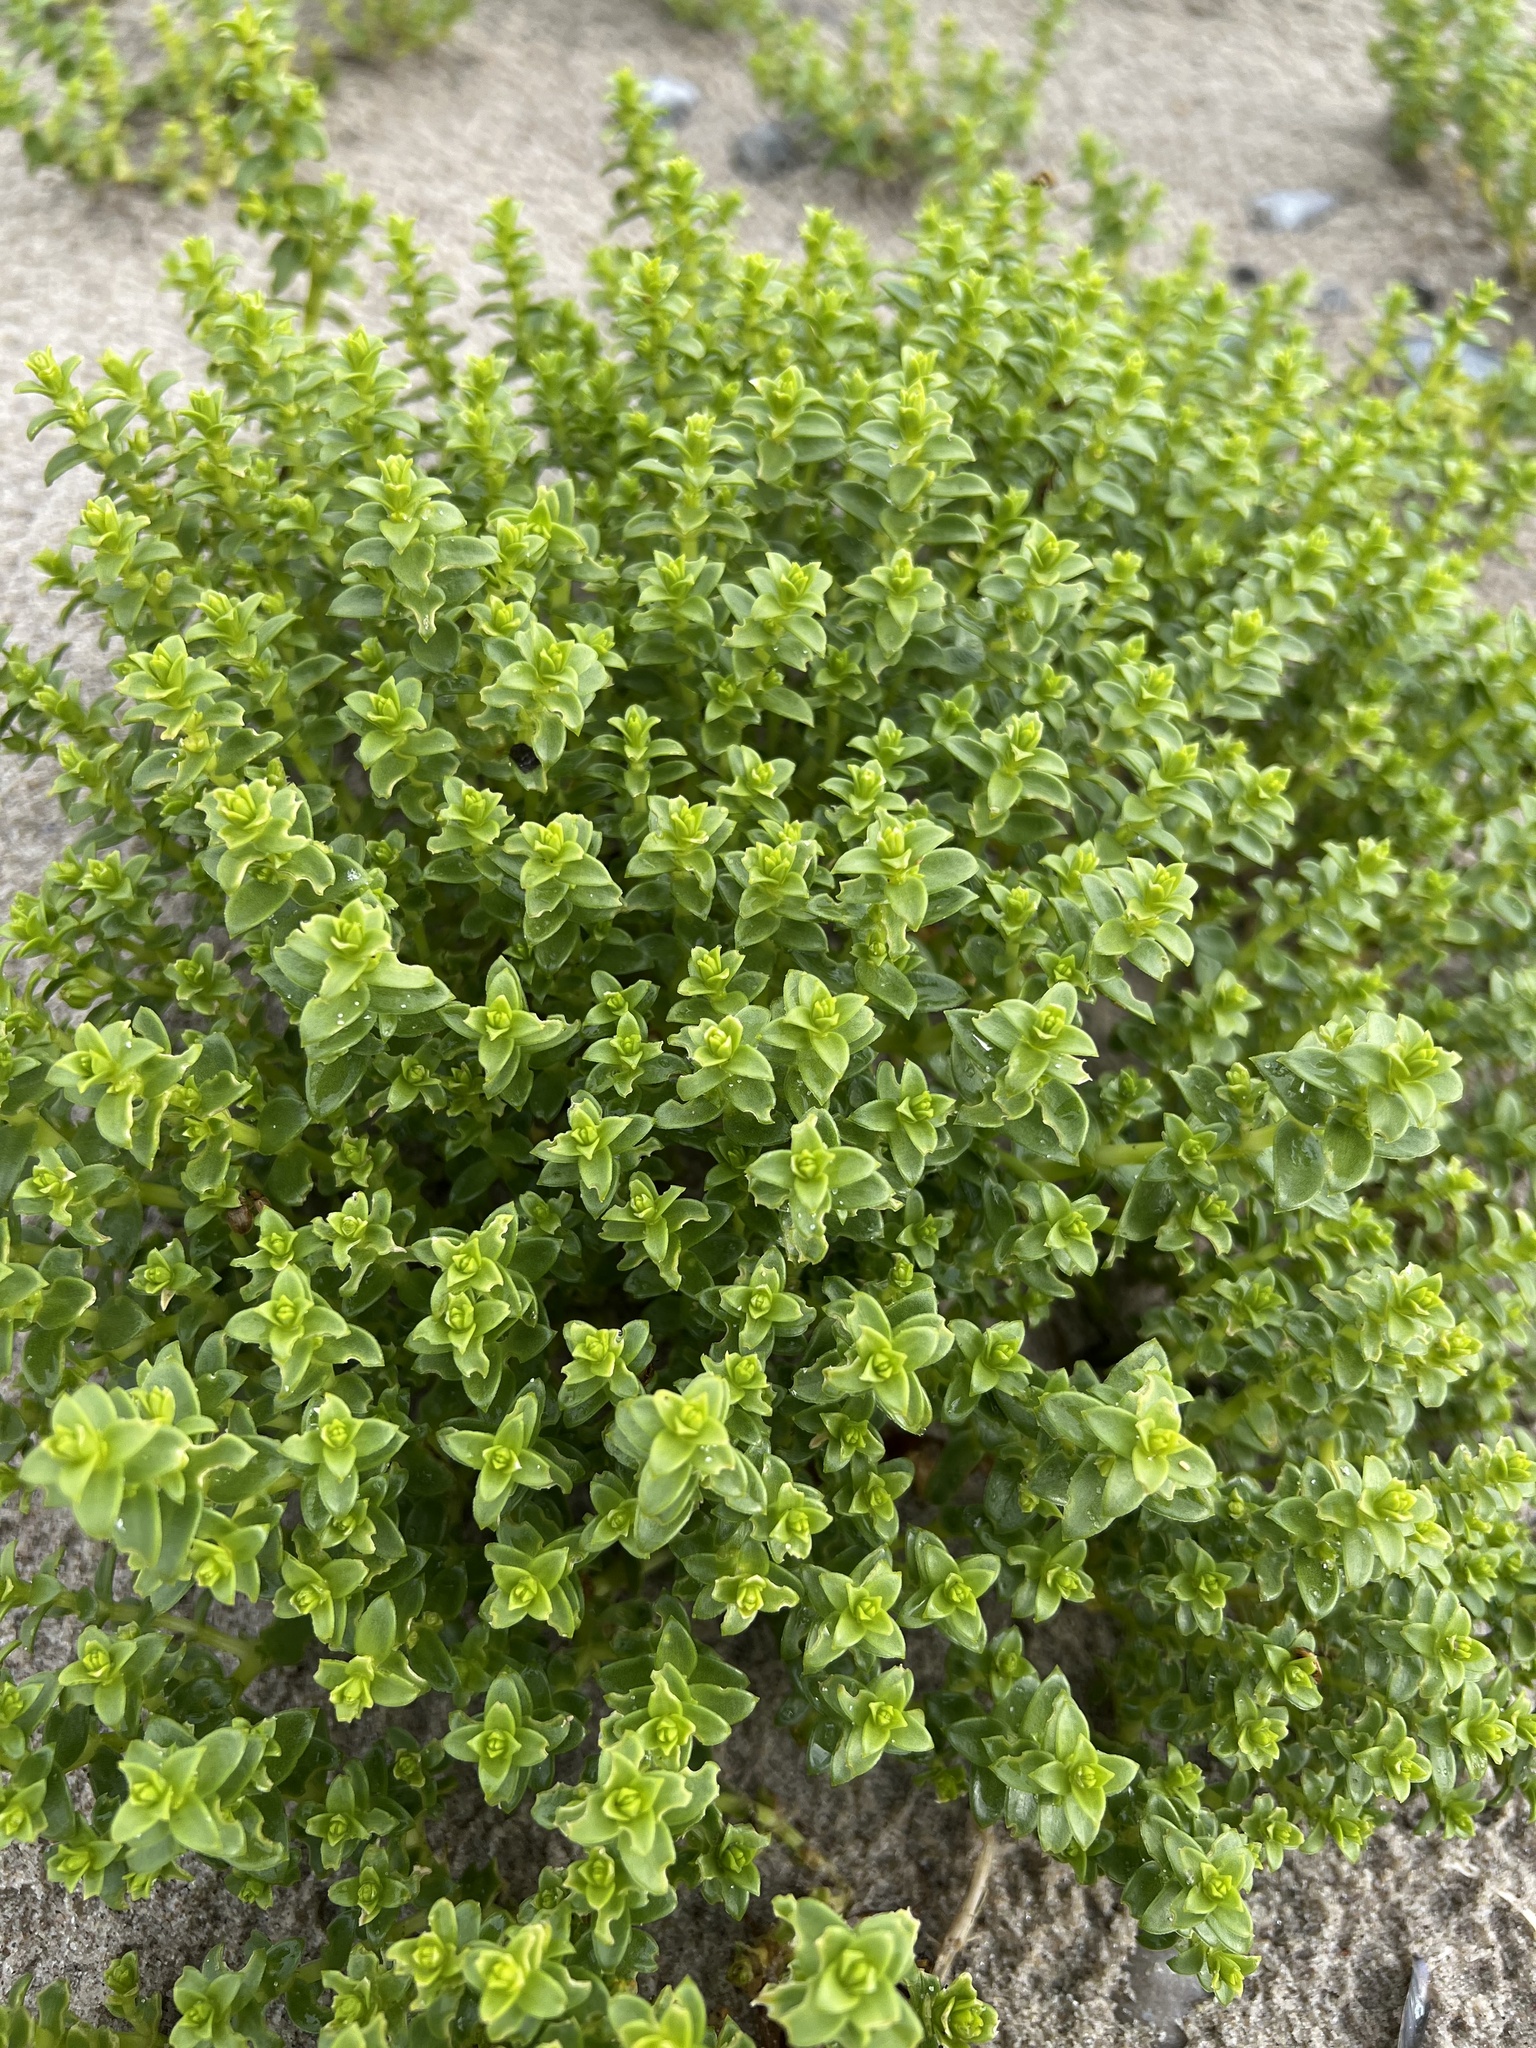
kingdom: Plantae
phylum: Tracheophyta
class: Magnoliopsida
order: Caryophyllales
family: Caryophyllaceae
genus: Honckenya
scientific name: Honckenya peploides
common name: Sea sandwort
